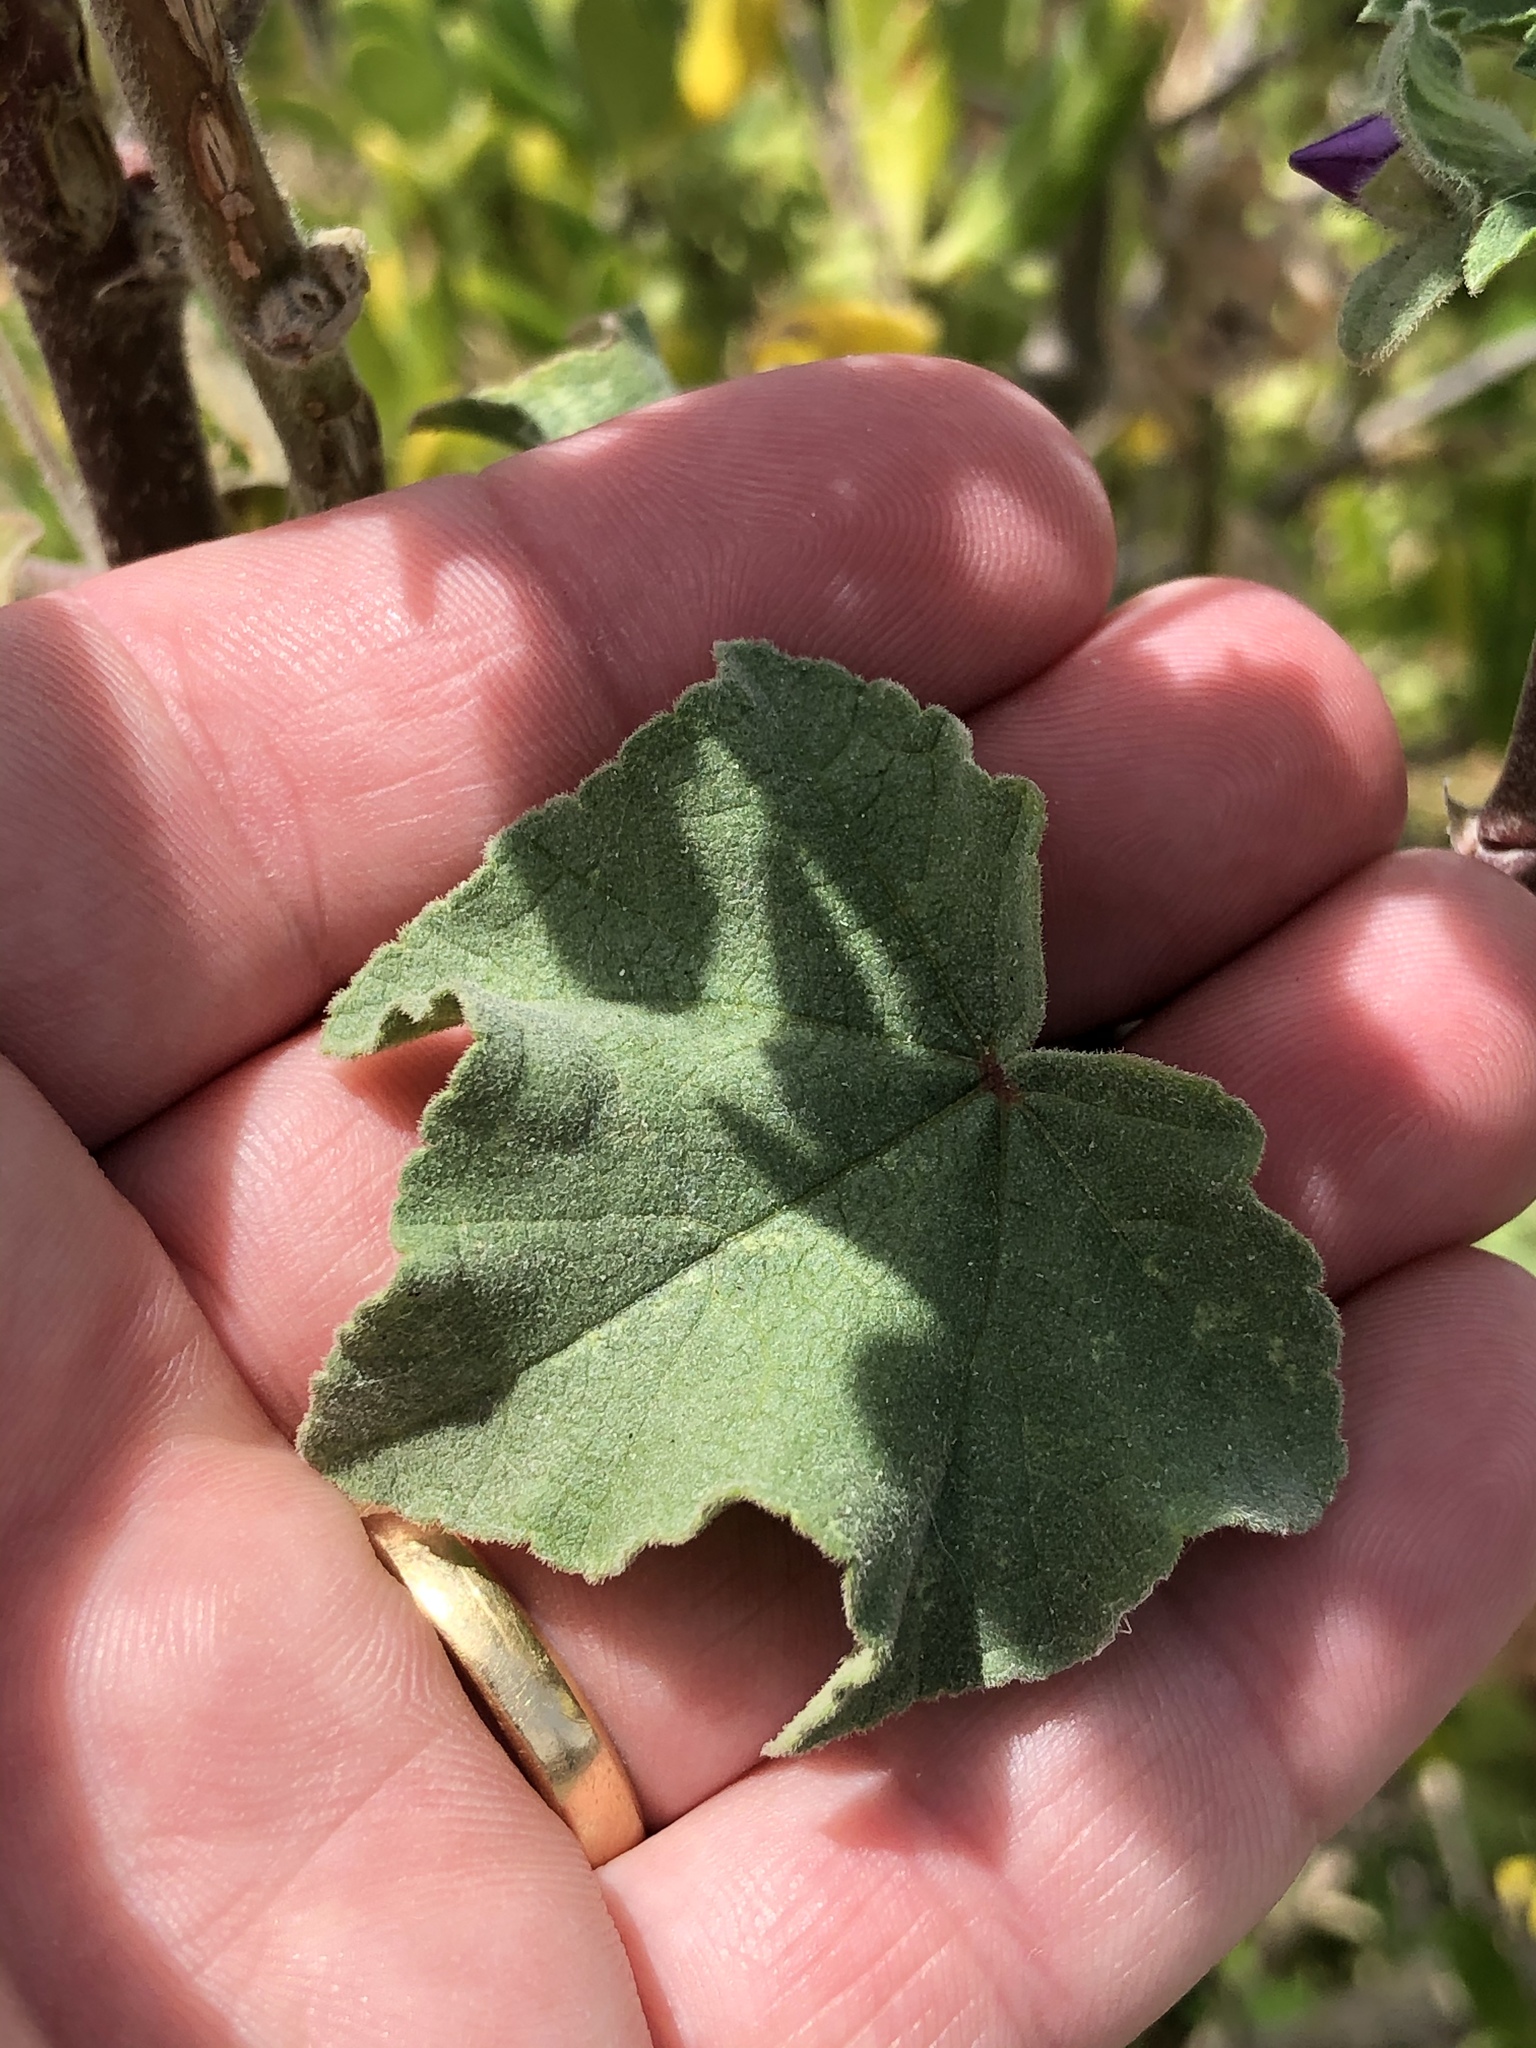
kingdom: Plantae
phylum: Tracheophyta
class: Magnoliopsida
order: Malvales
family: Malvaceae
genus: Malva
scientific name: Malva arborea
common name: Tree mallow
